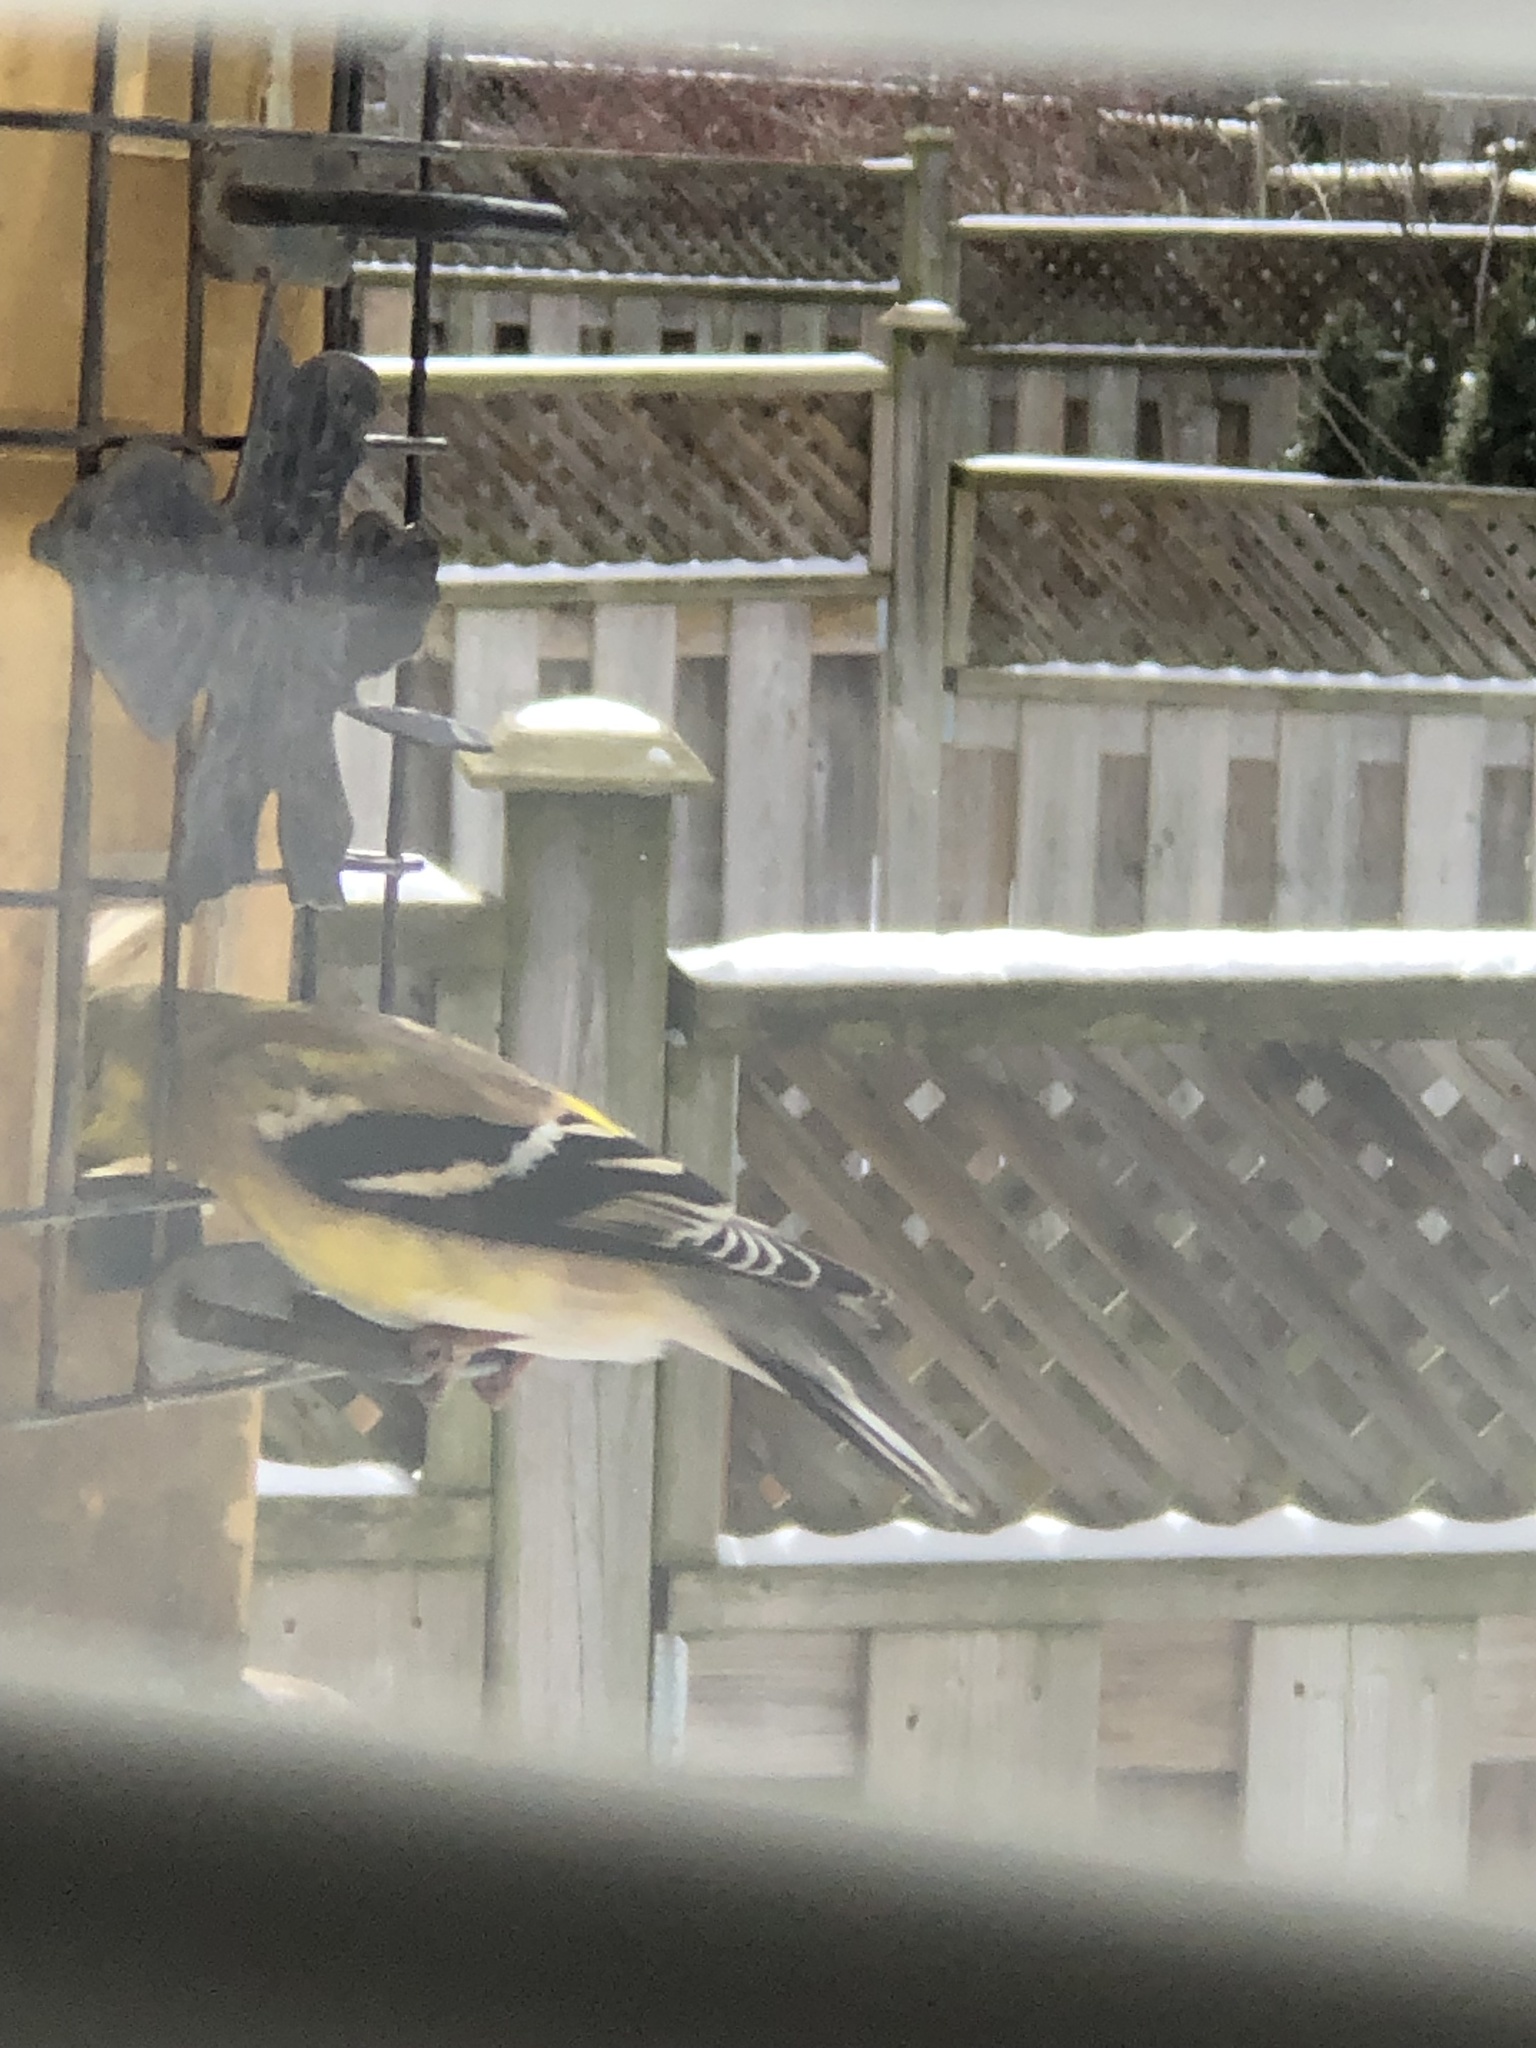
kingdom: Animalia
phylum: Chordata
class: Aves
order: Passeriformes
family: Fringillidae
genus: Spinus
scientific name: Spinus tristis
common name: American goldfinch
